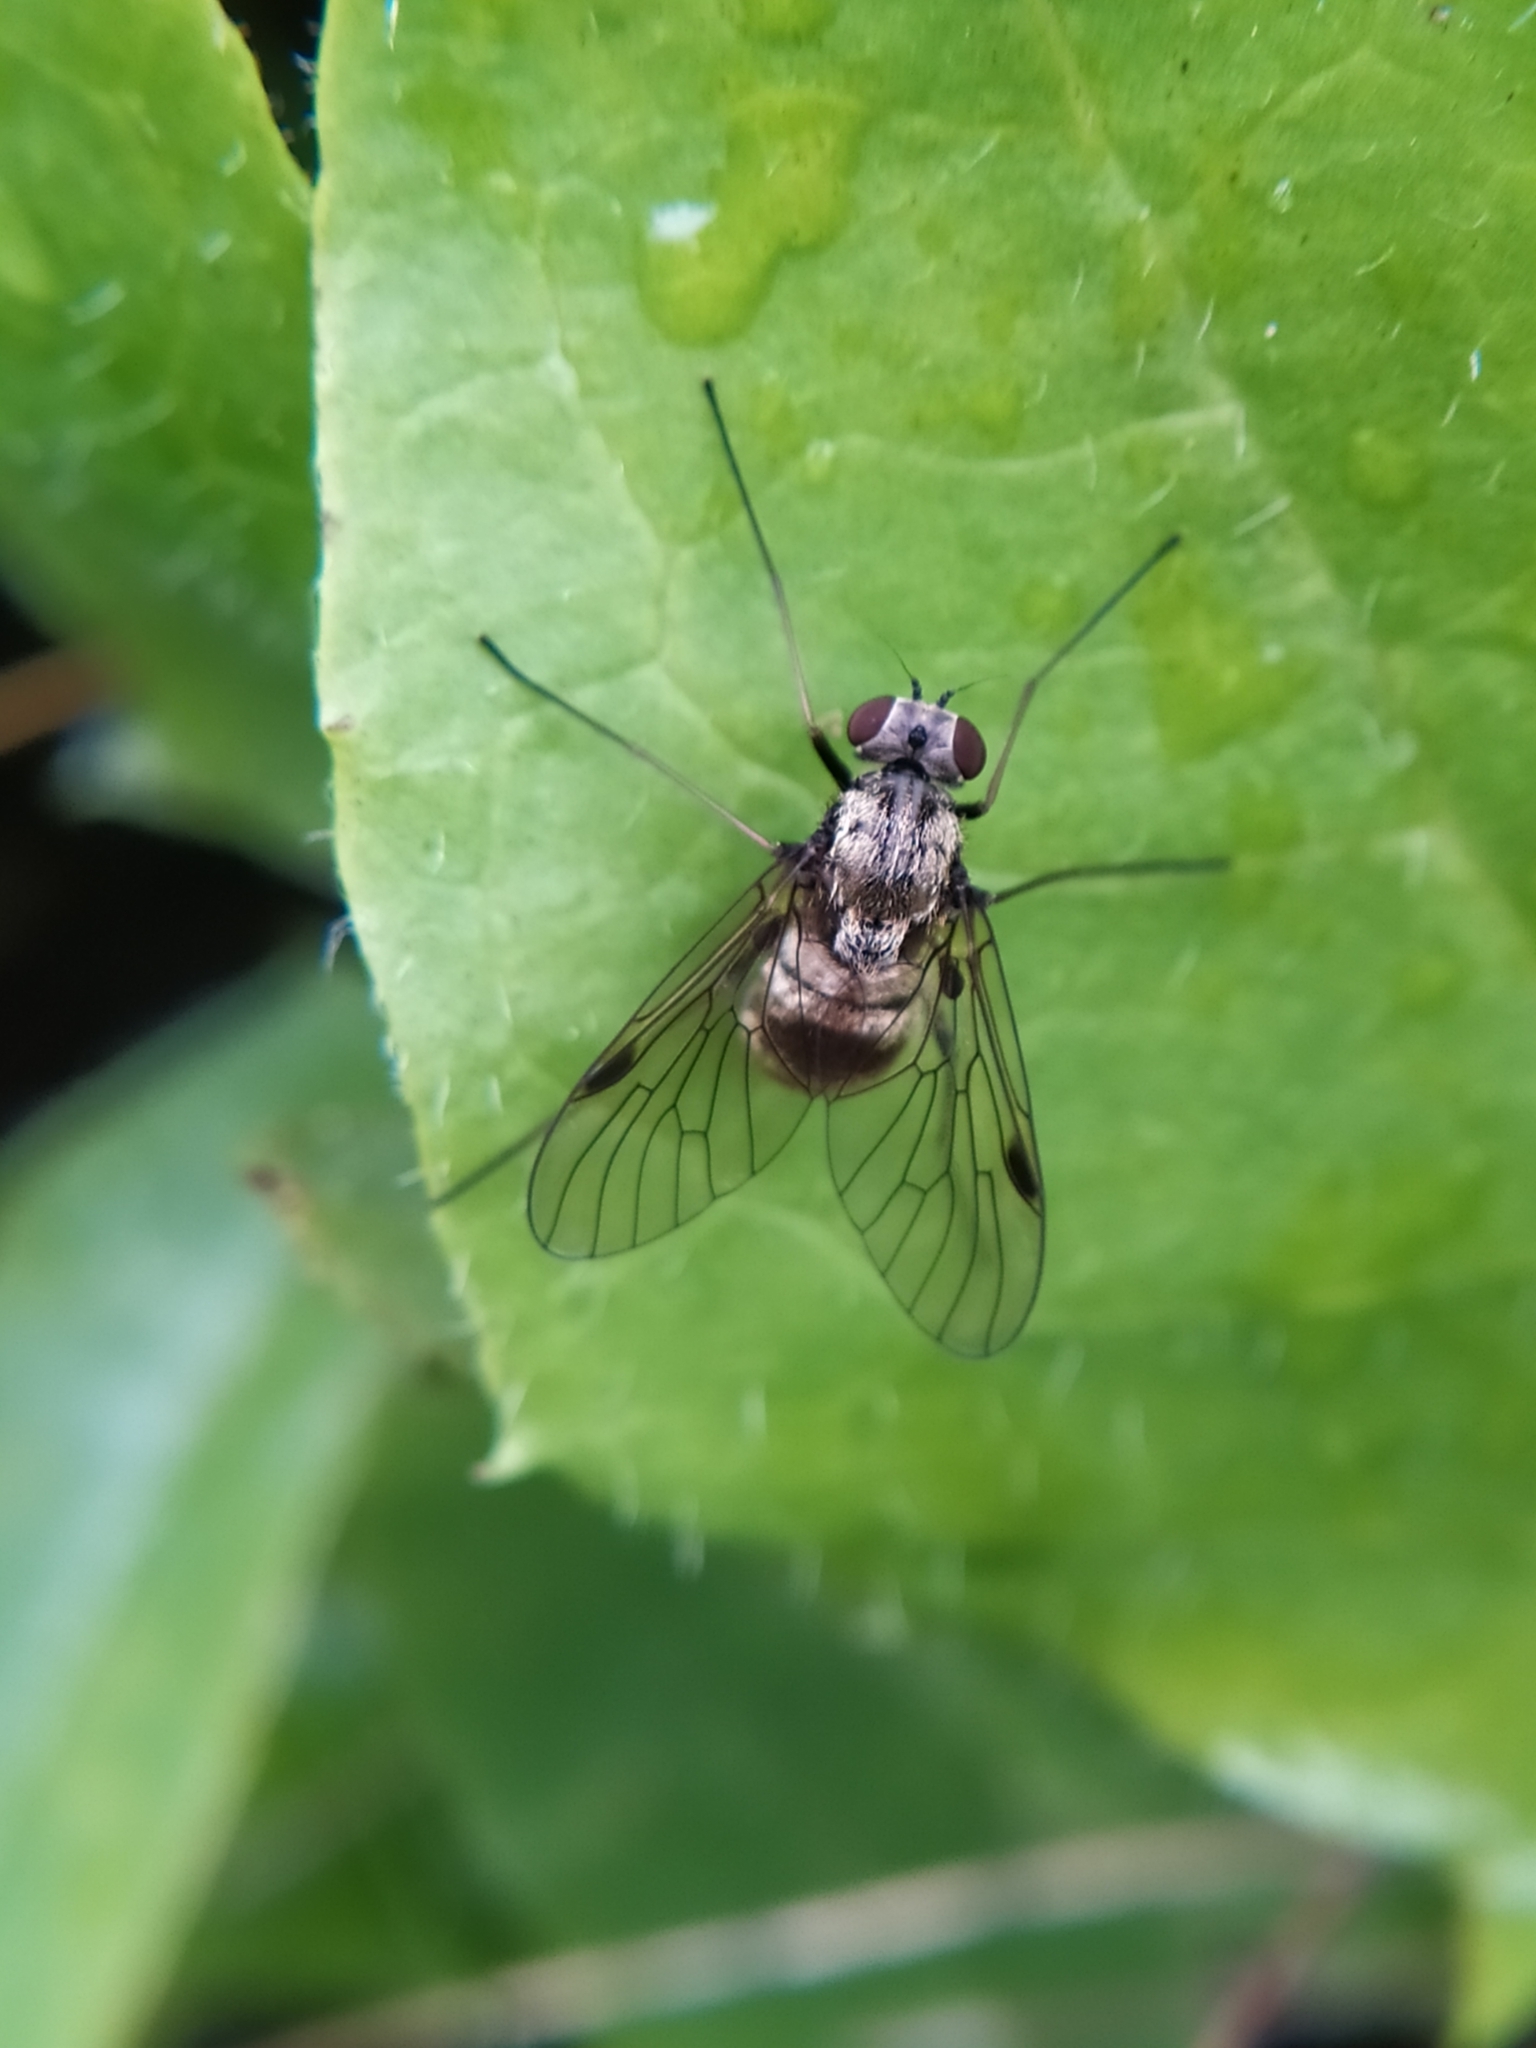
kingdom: Animalia
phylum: Arthropoda
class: Insecta
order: Diptera
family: Rhagionidae
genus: Chrysopilus
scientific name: Chrysopilus cristatus
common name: Black snipefly
